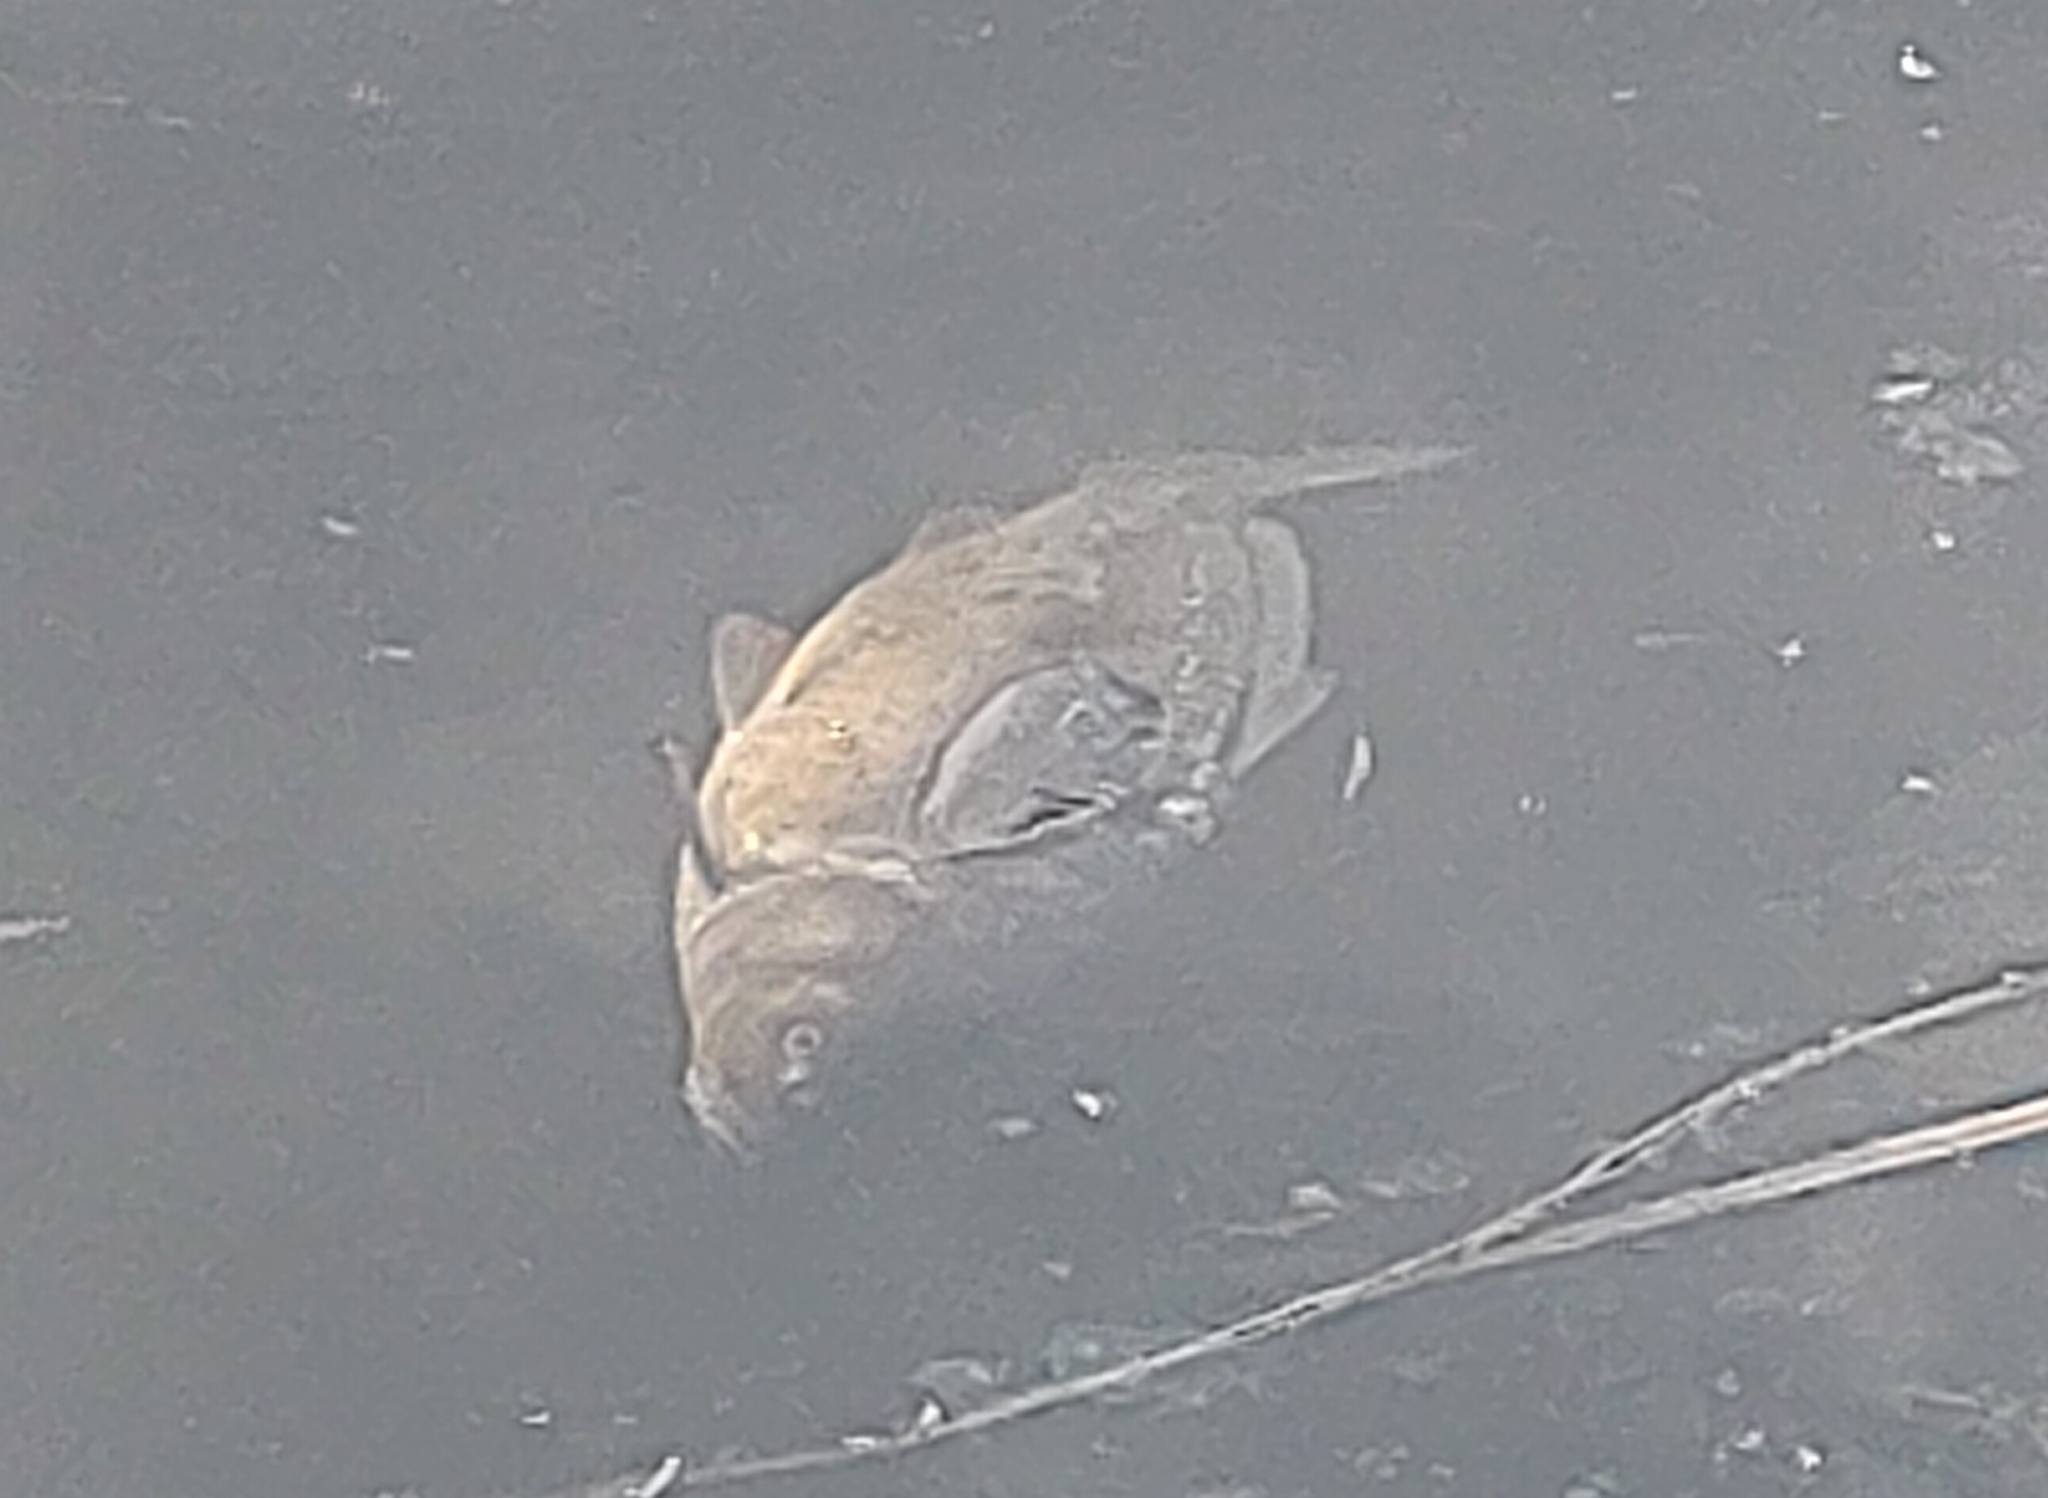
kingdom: Animalia
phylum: Chordata
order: Cypriniformes
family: Cyprinidae
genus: Cyprinus
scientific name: Cyprinus carpio
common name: Common carp
